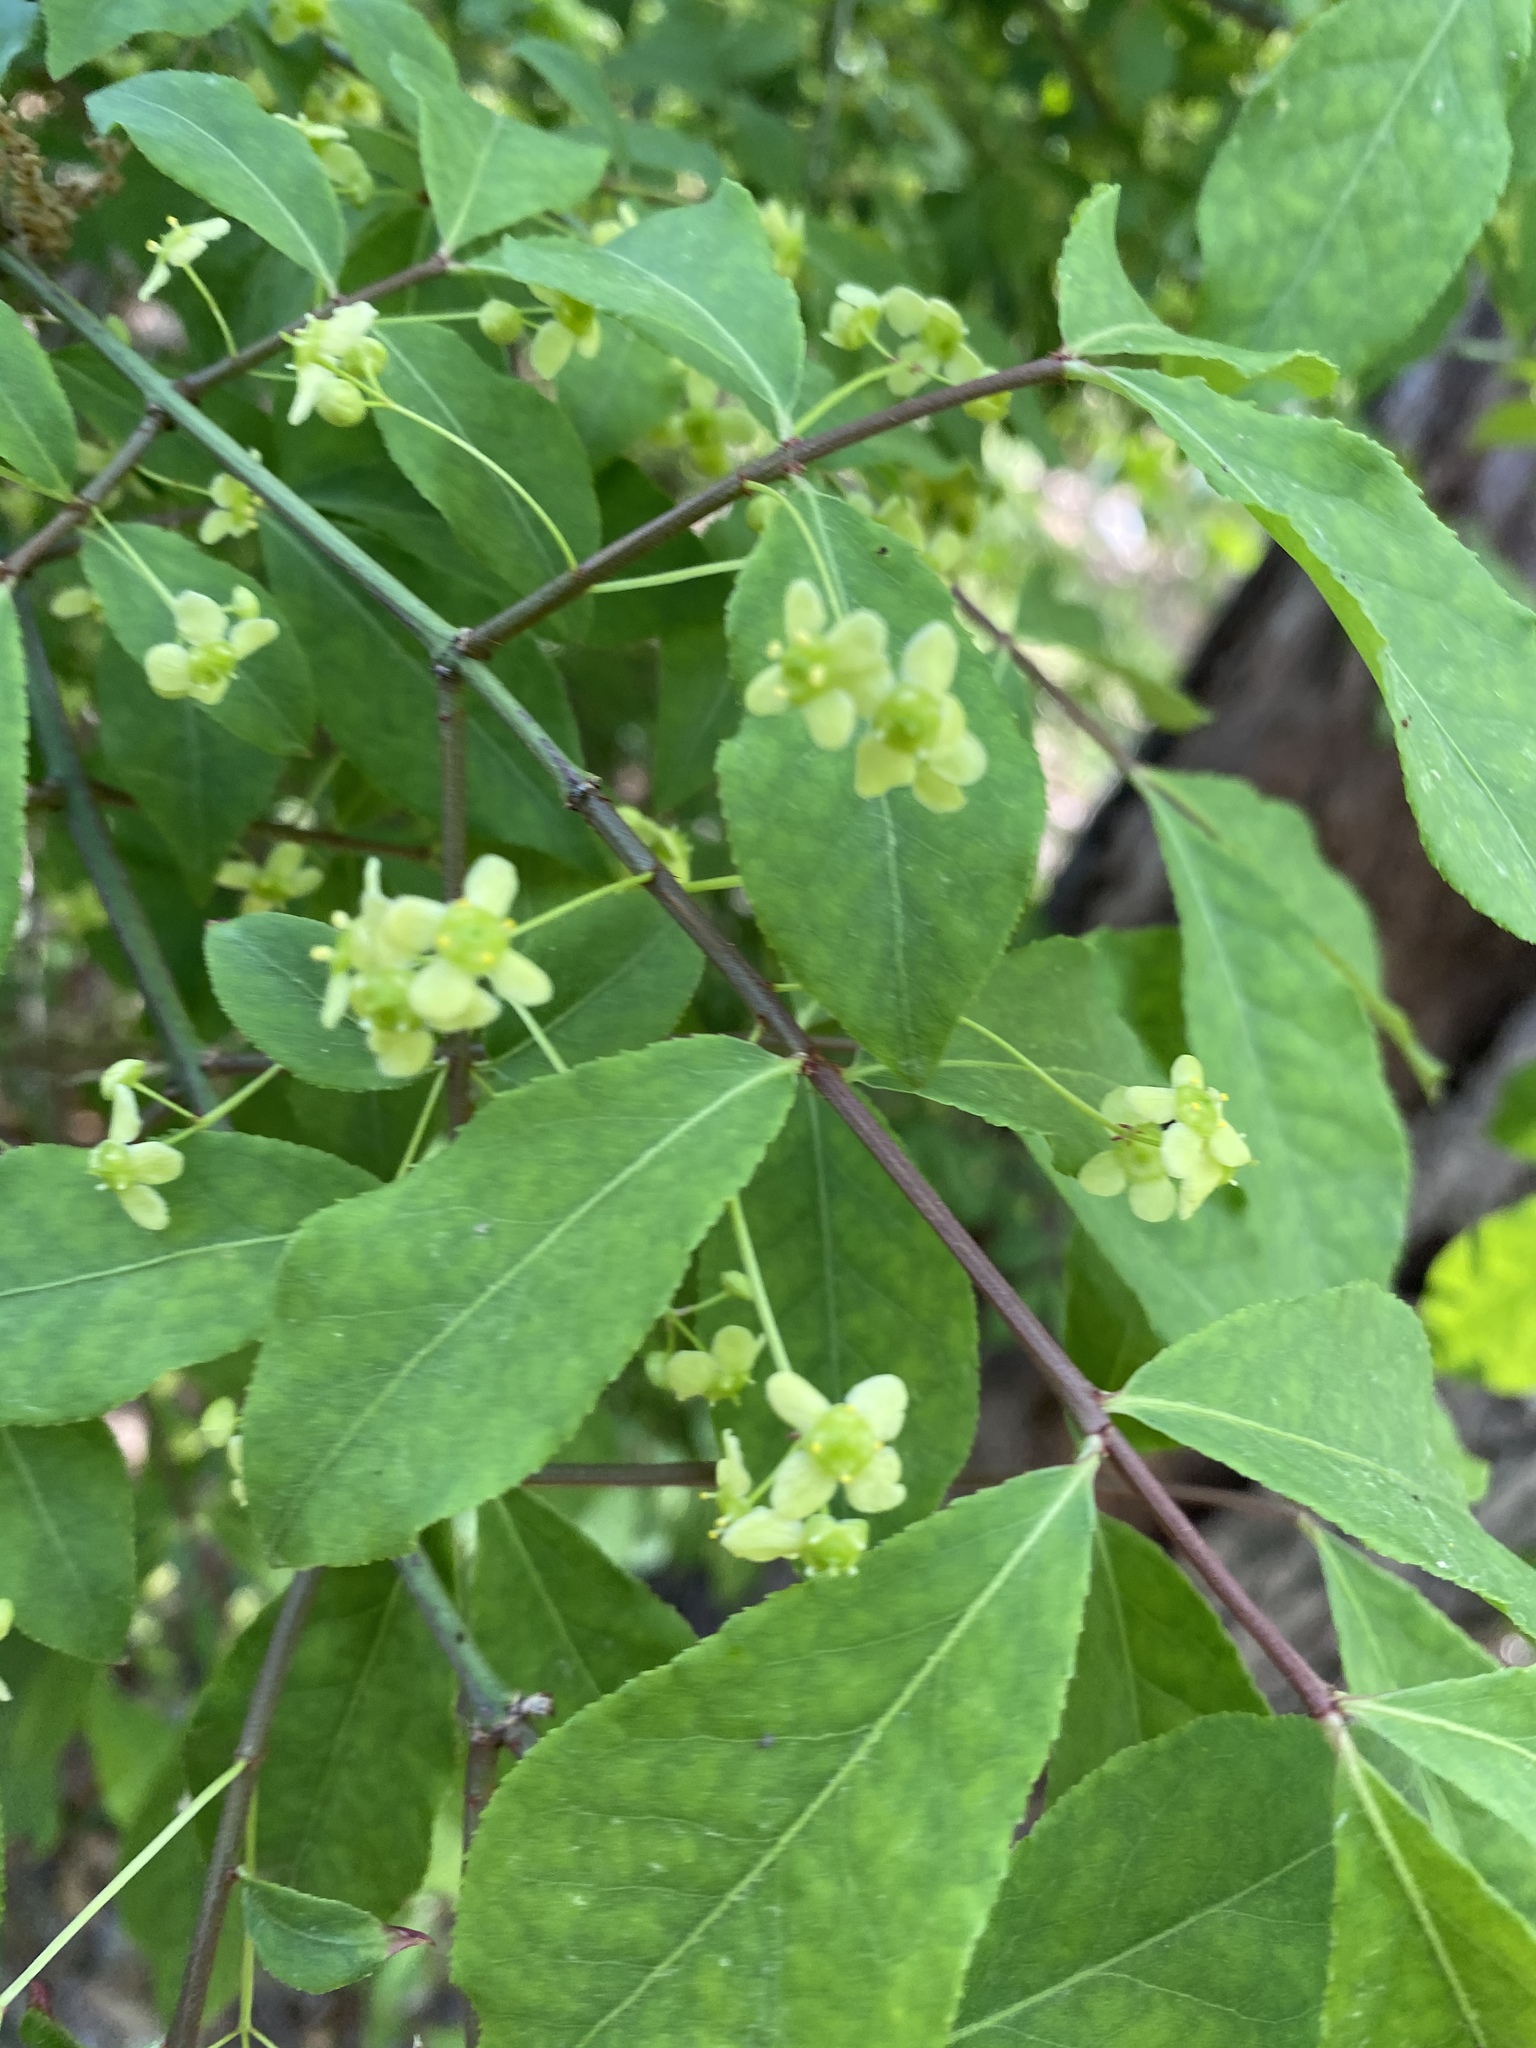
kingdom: Plantae
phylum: Tracheophyta
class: Magnoliopsida
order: Celastrales
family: Celastraceae
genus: Euonymus
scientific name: Euonymus alatus
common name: Winged euonymus
